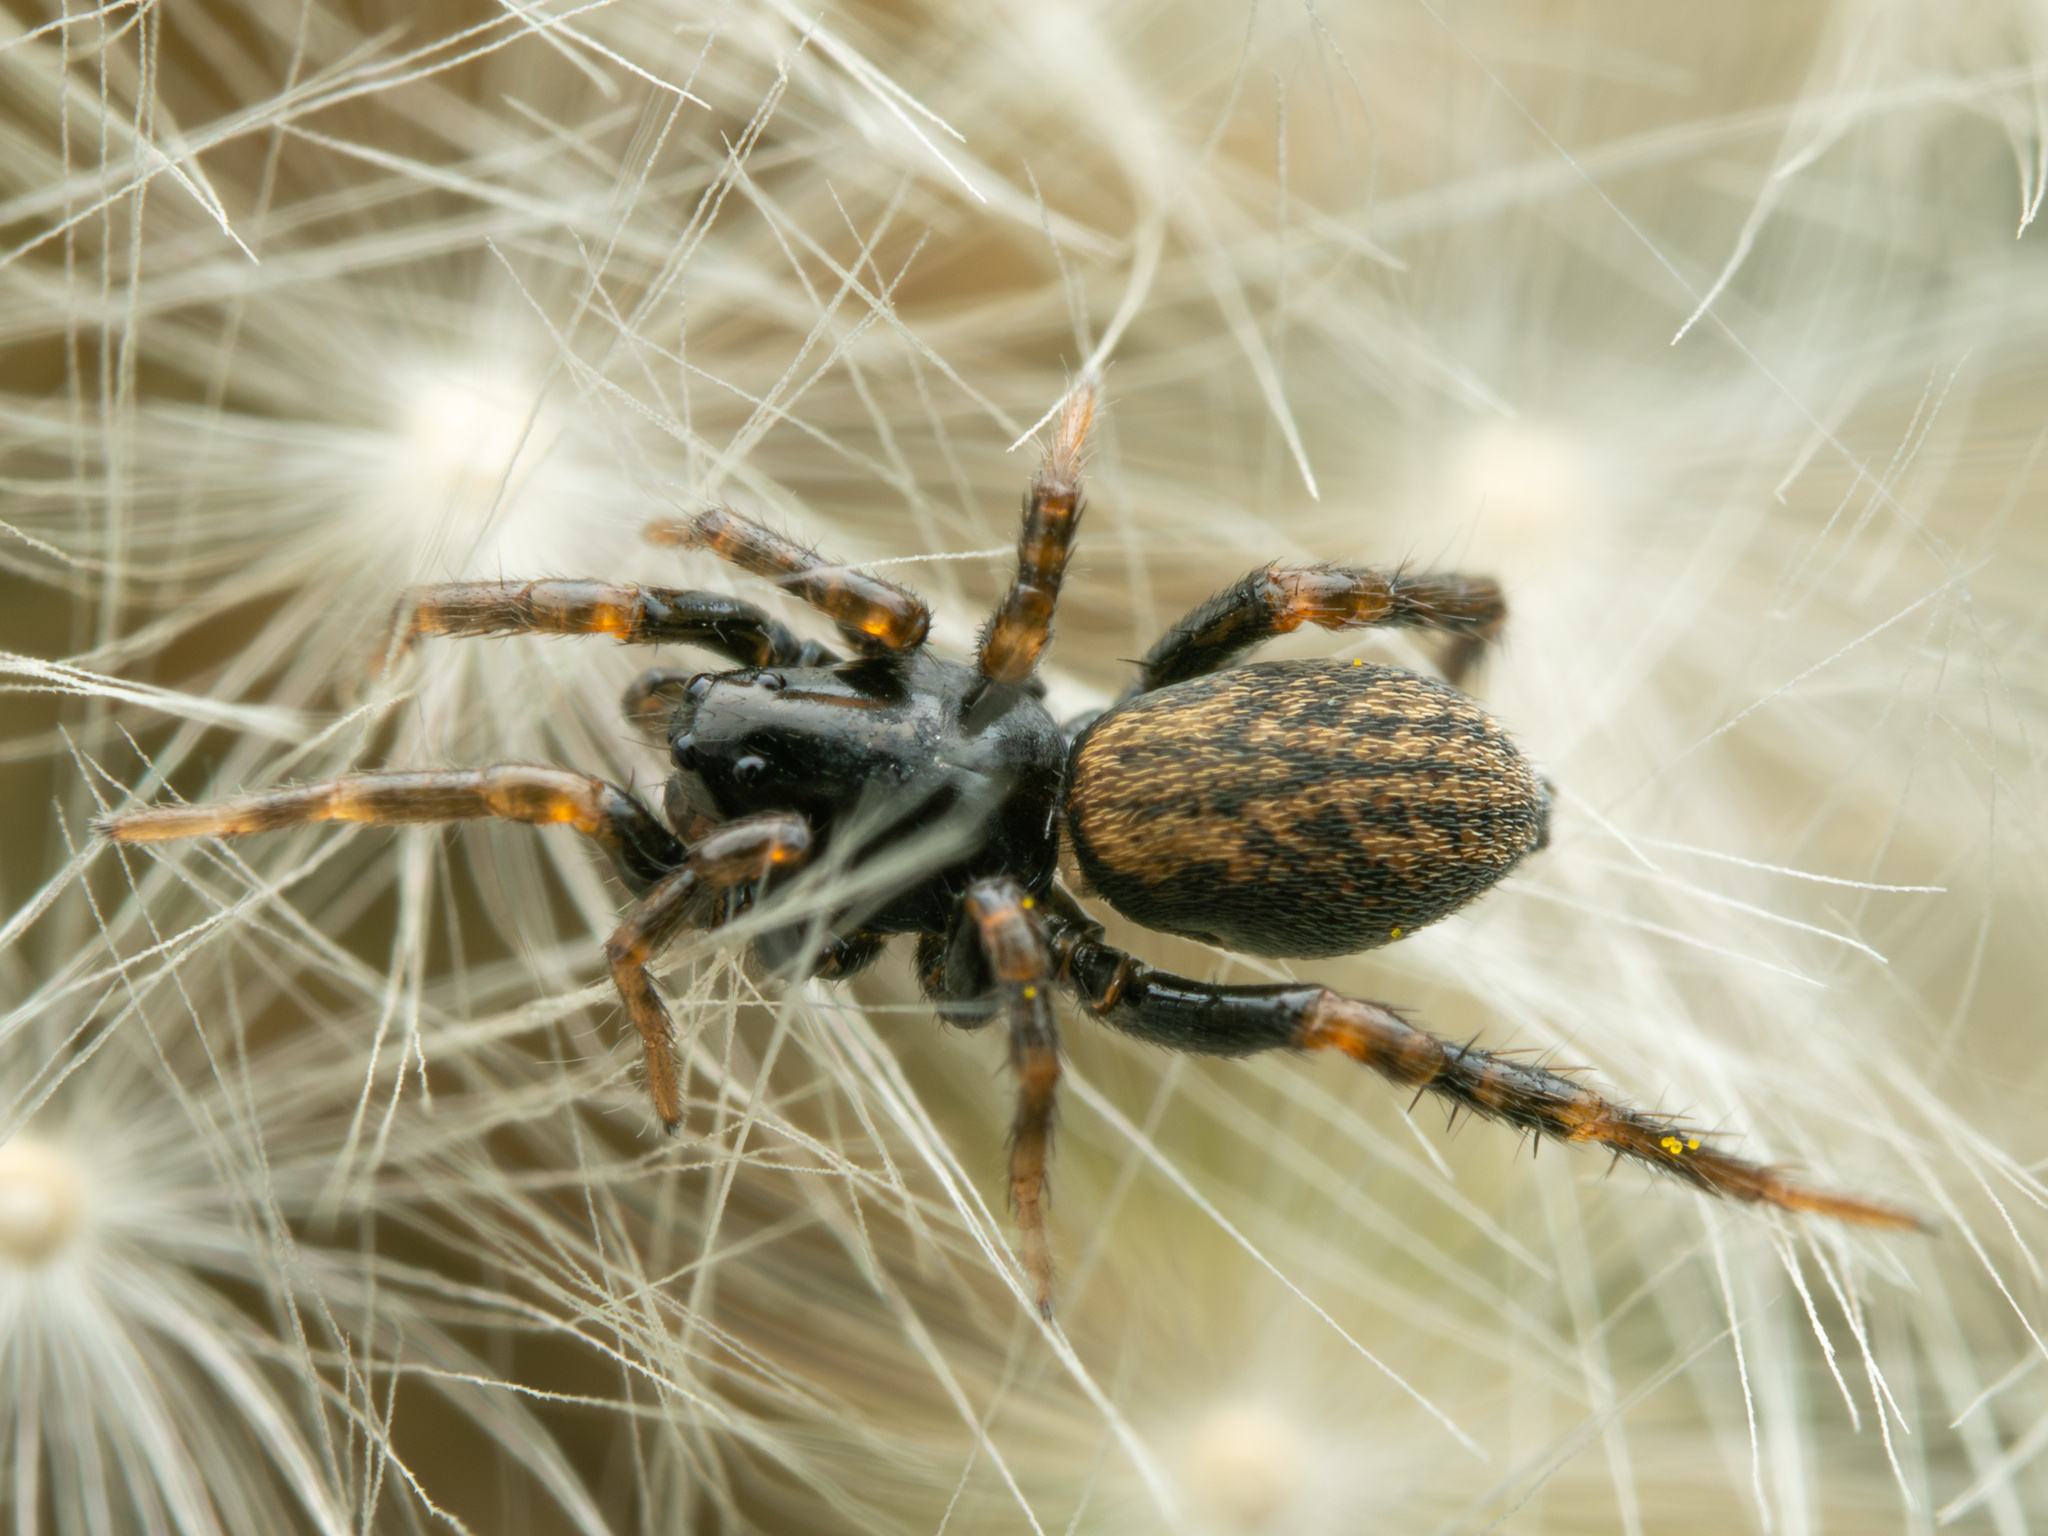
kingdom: Animalia
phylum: Arthropoda
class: Arachnida
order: Araneae
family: Lycosidae
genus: Allocosa
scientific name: Allocosa funerea
